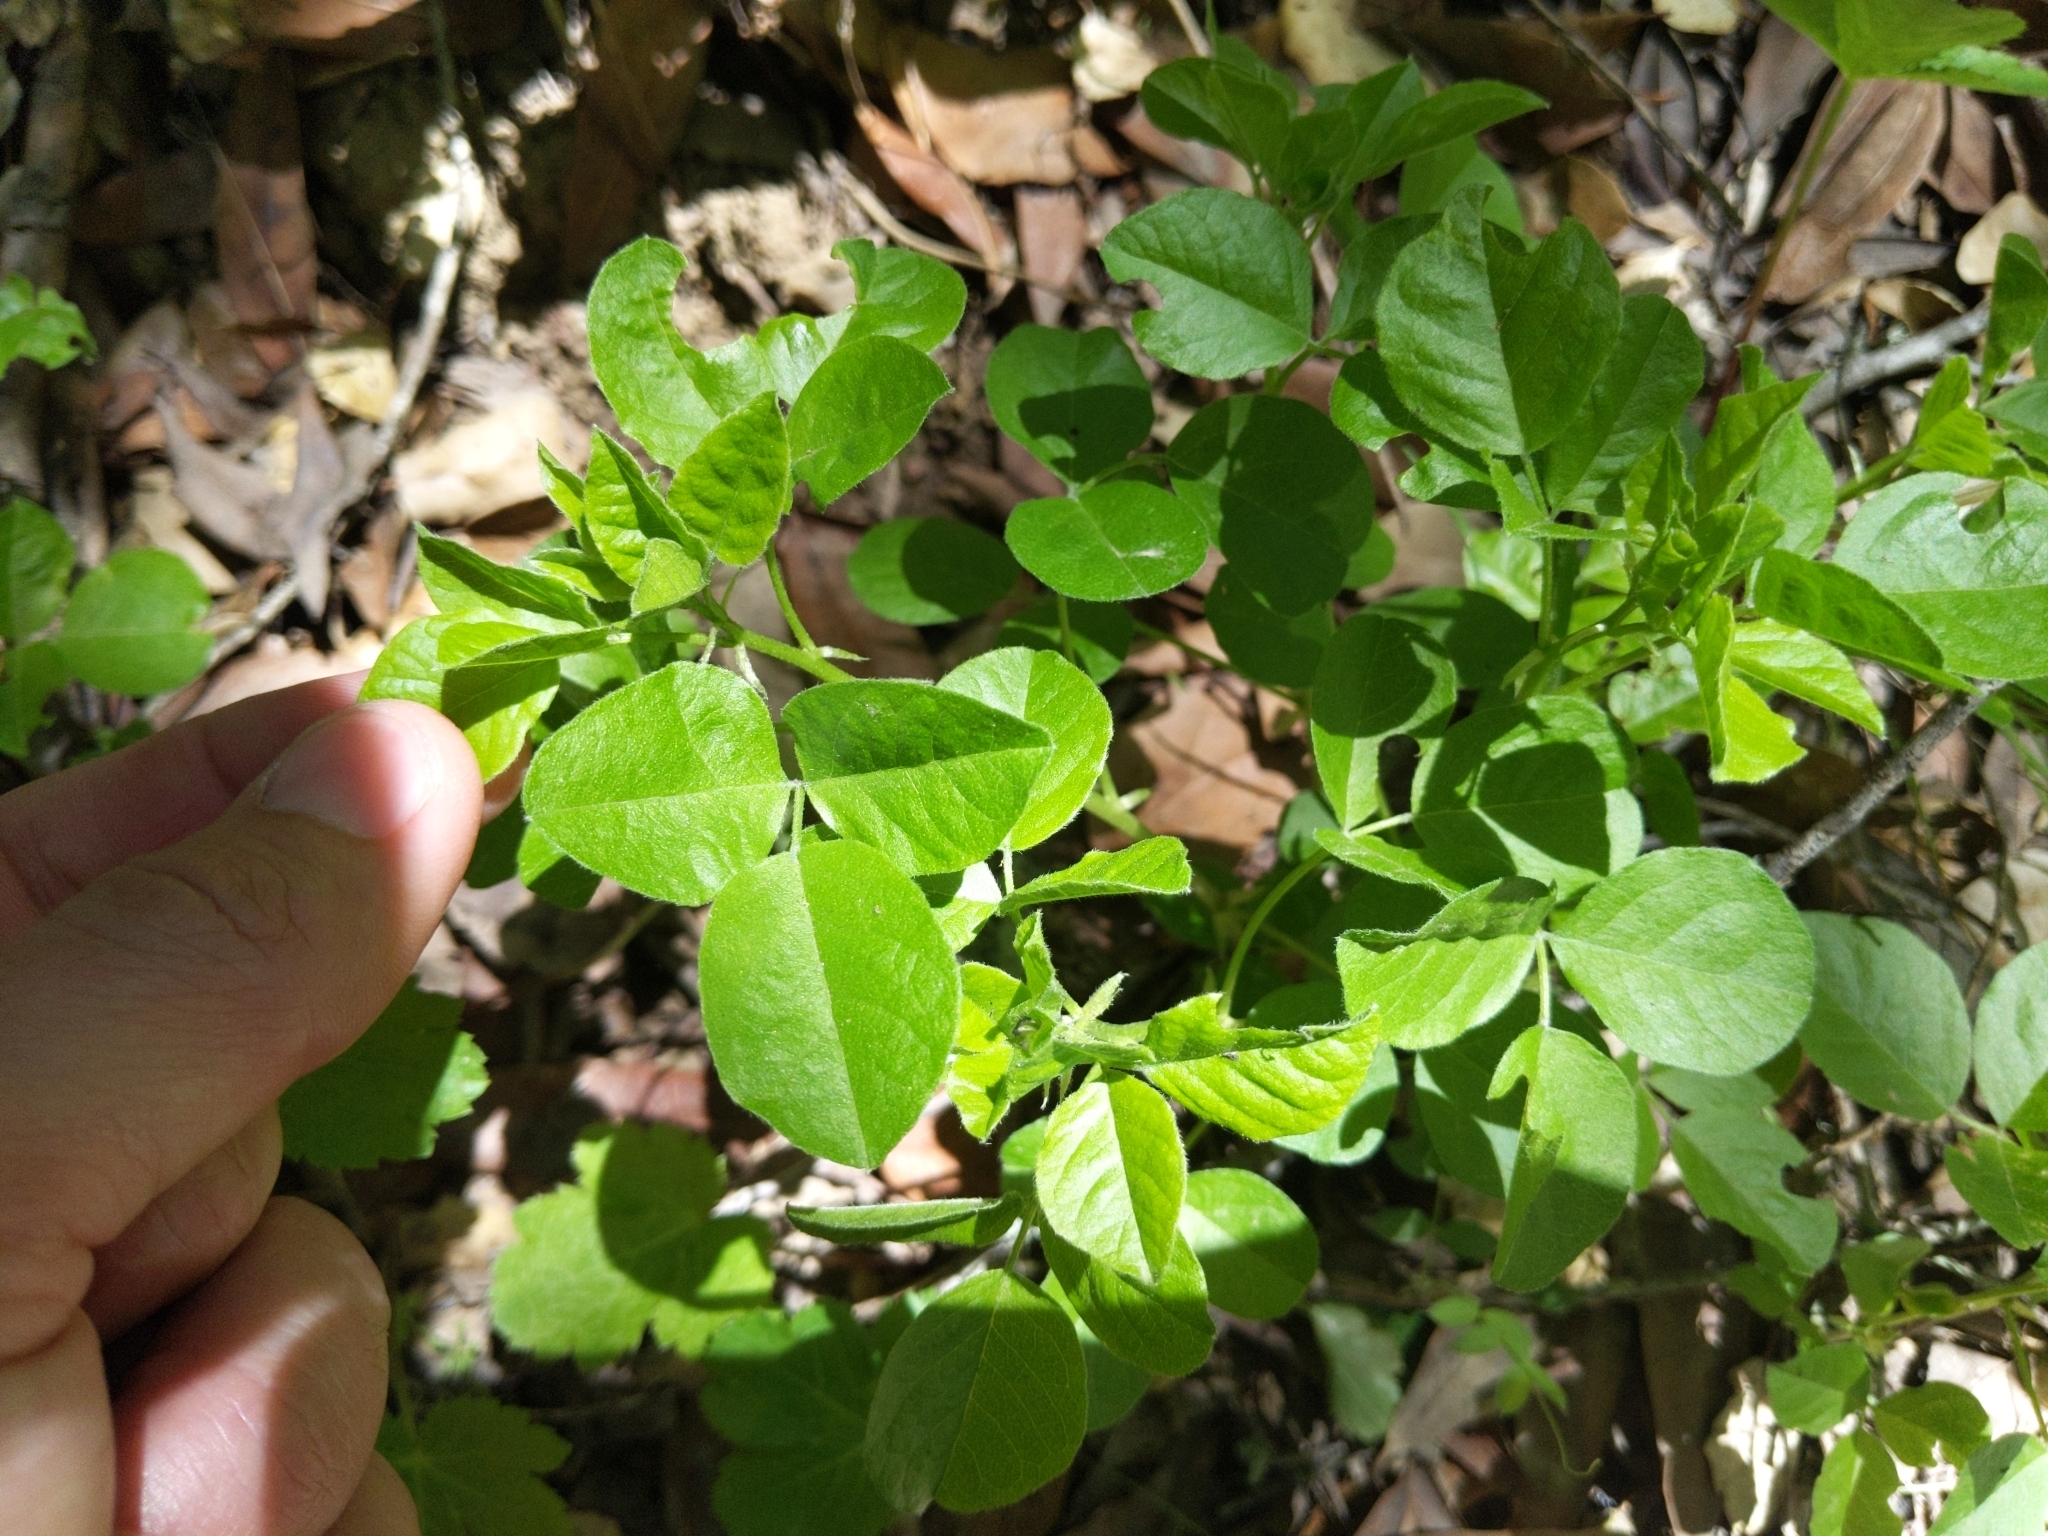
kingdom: Plantae
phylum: Tracheophyta
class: Magnoliopsida
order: Fabales
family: Fabaceae
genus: Rupertia
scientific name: Rupertia physodes
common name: California-tea
